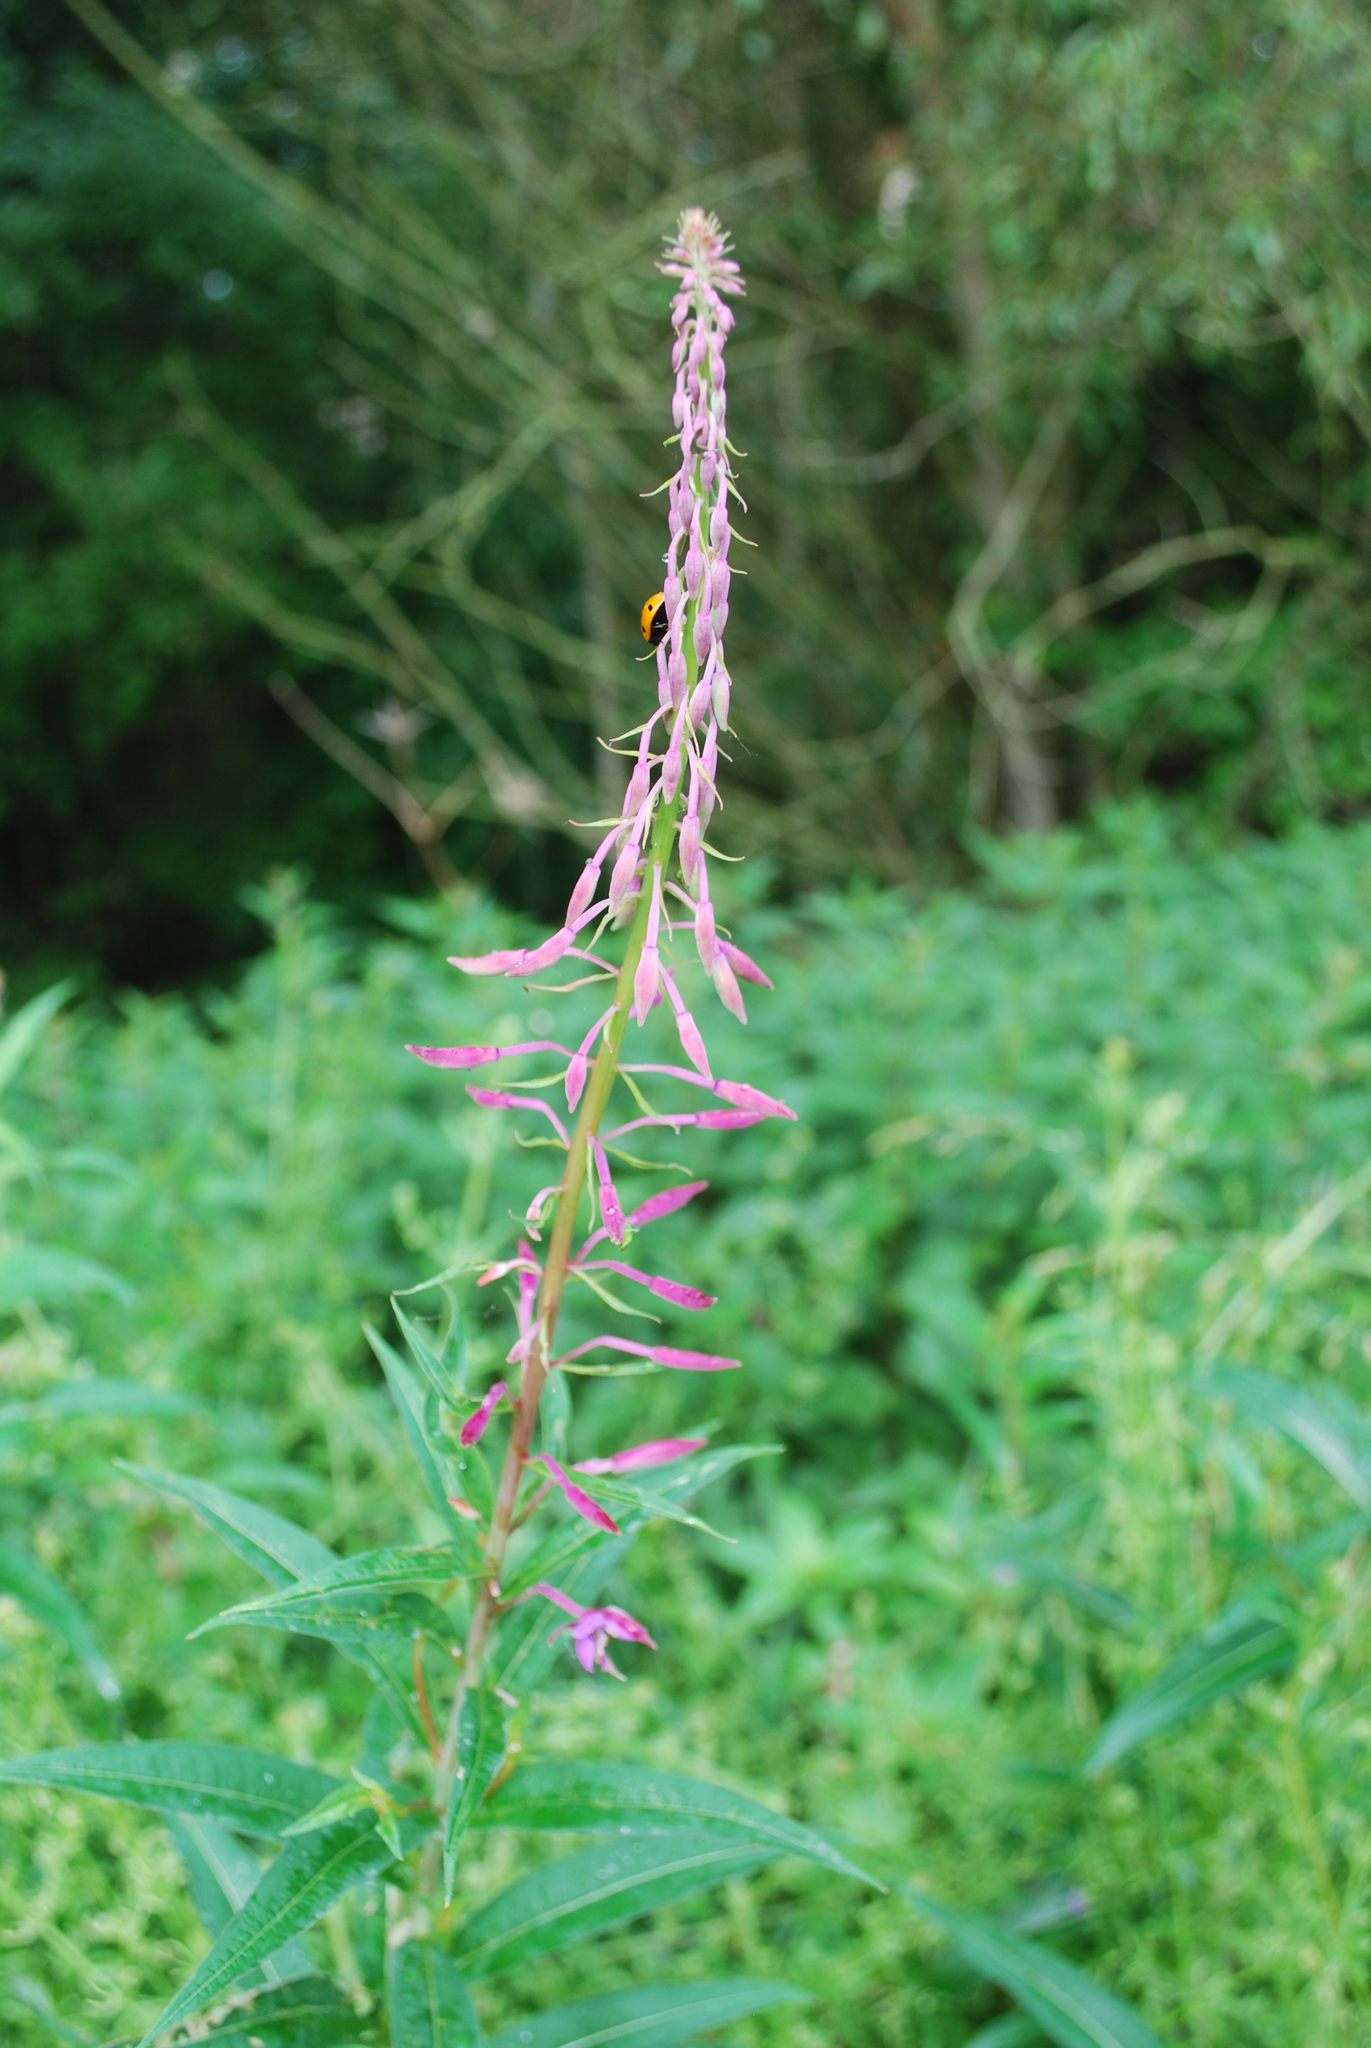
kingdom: Plantae
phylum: Tracheophyta
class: Magnoliopsida
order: Myrtales
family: Onagraceae
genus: Chamaenerion
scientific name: Chamaenerion angustifolium
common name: Fireweed
